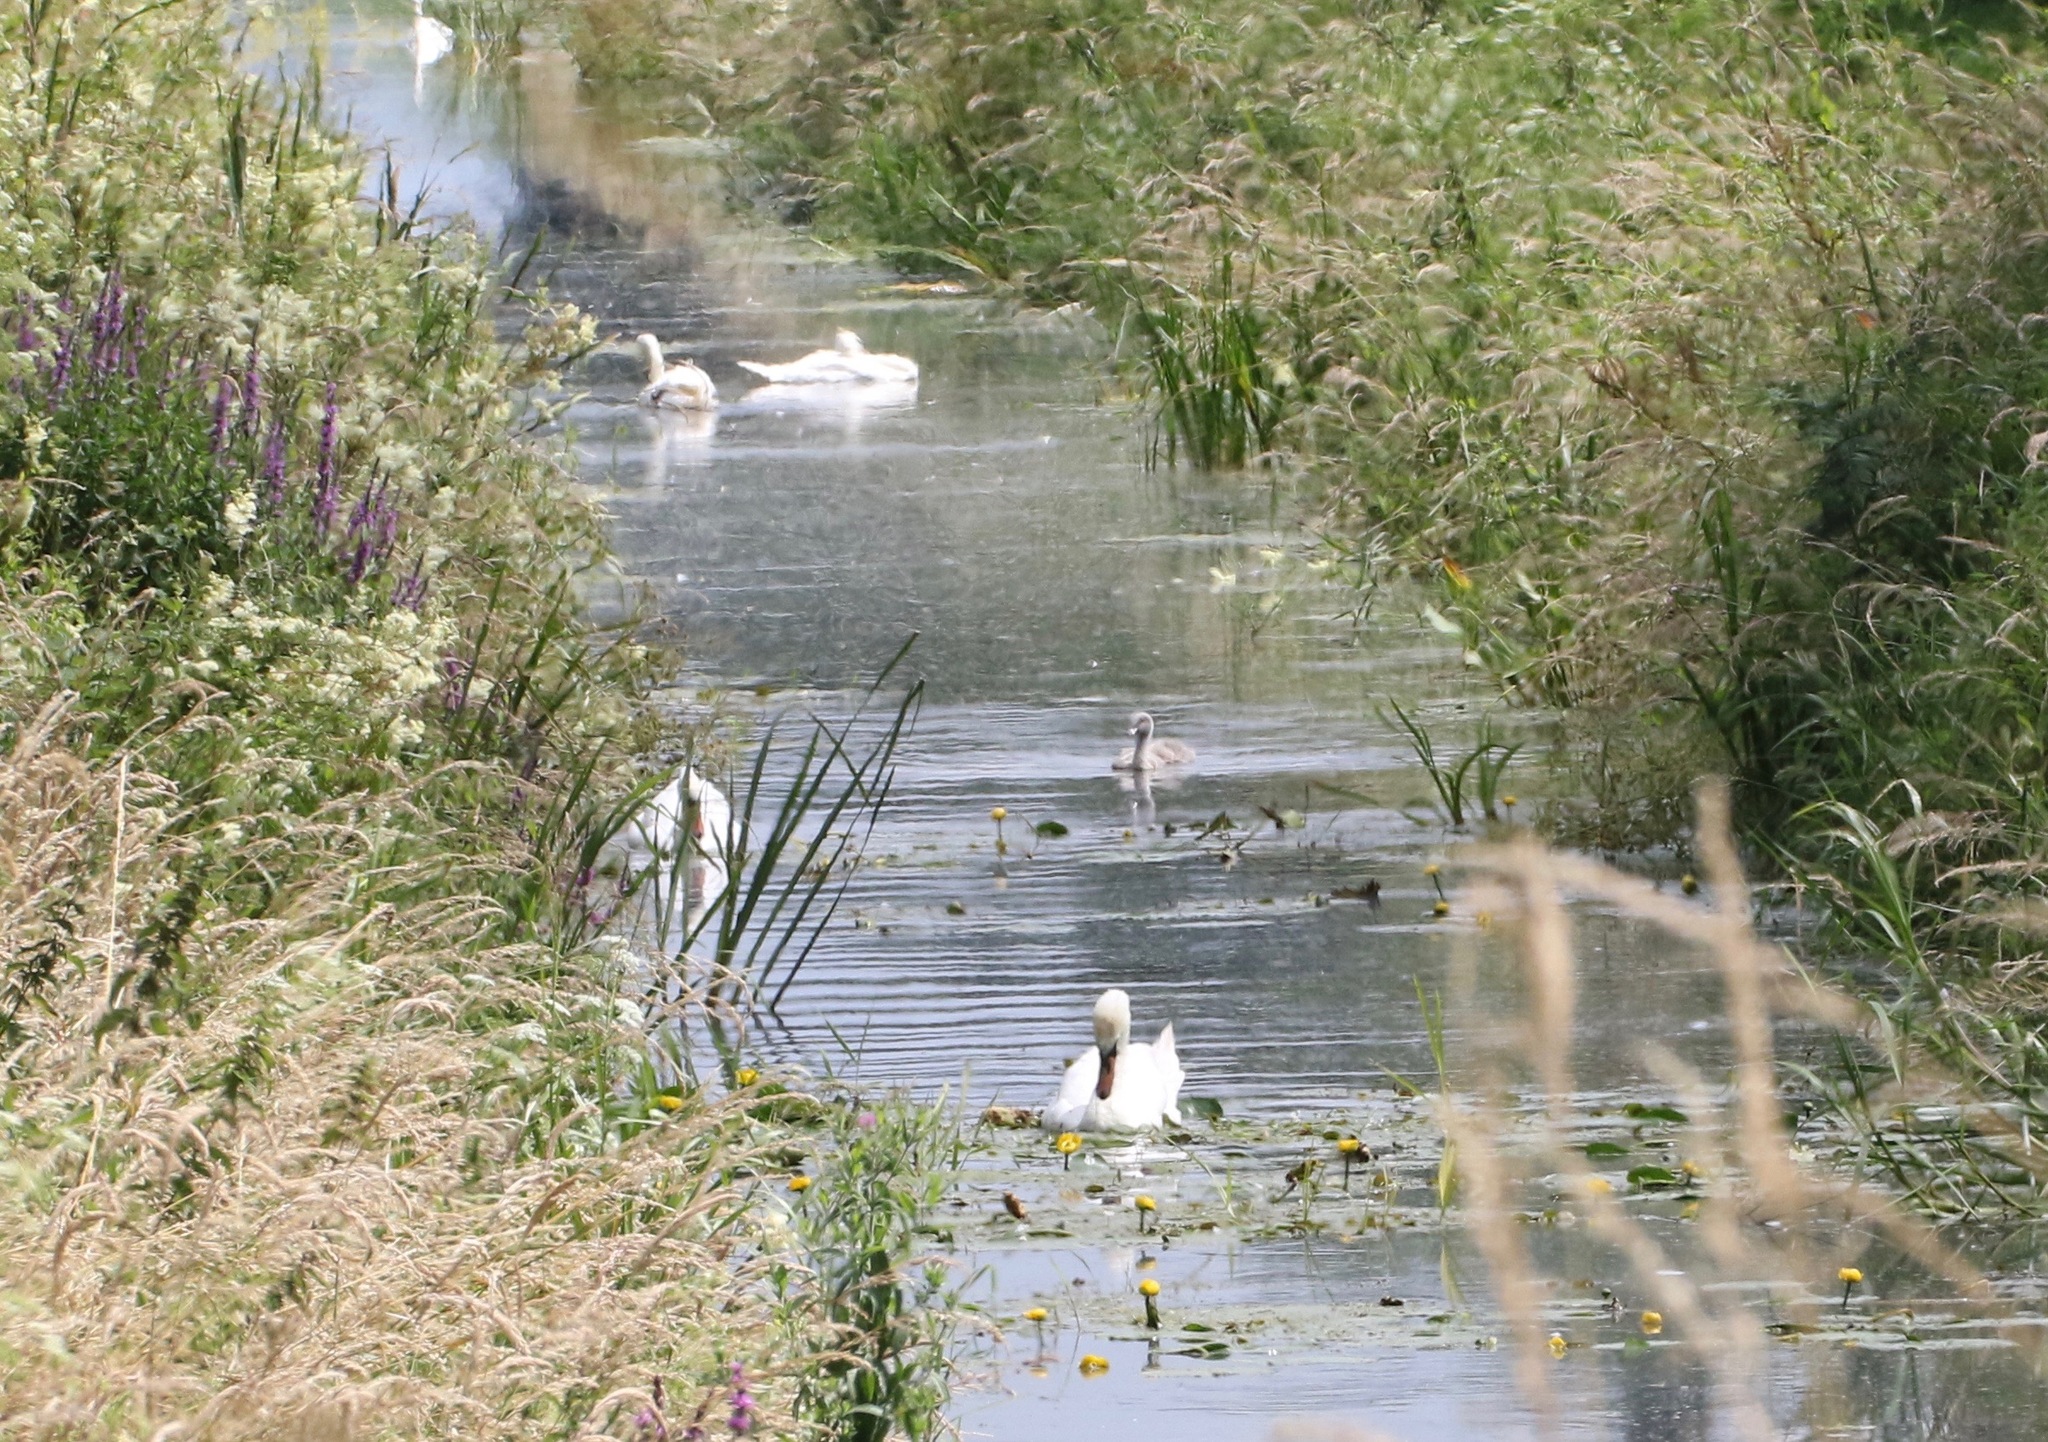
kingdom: Animalia
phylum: Chordata
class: Aves
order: Anseriformes
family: Anatidae
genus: Cygnus
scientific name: Cygnus olor
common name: Mute swan
